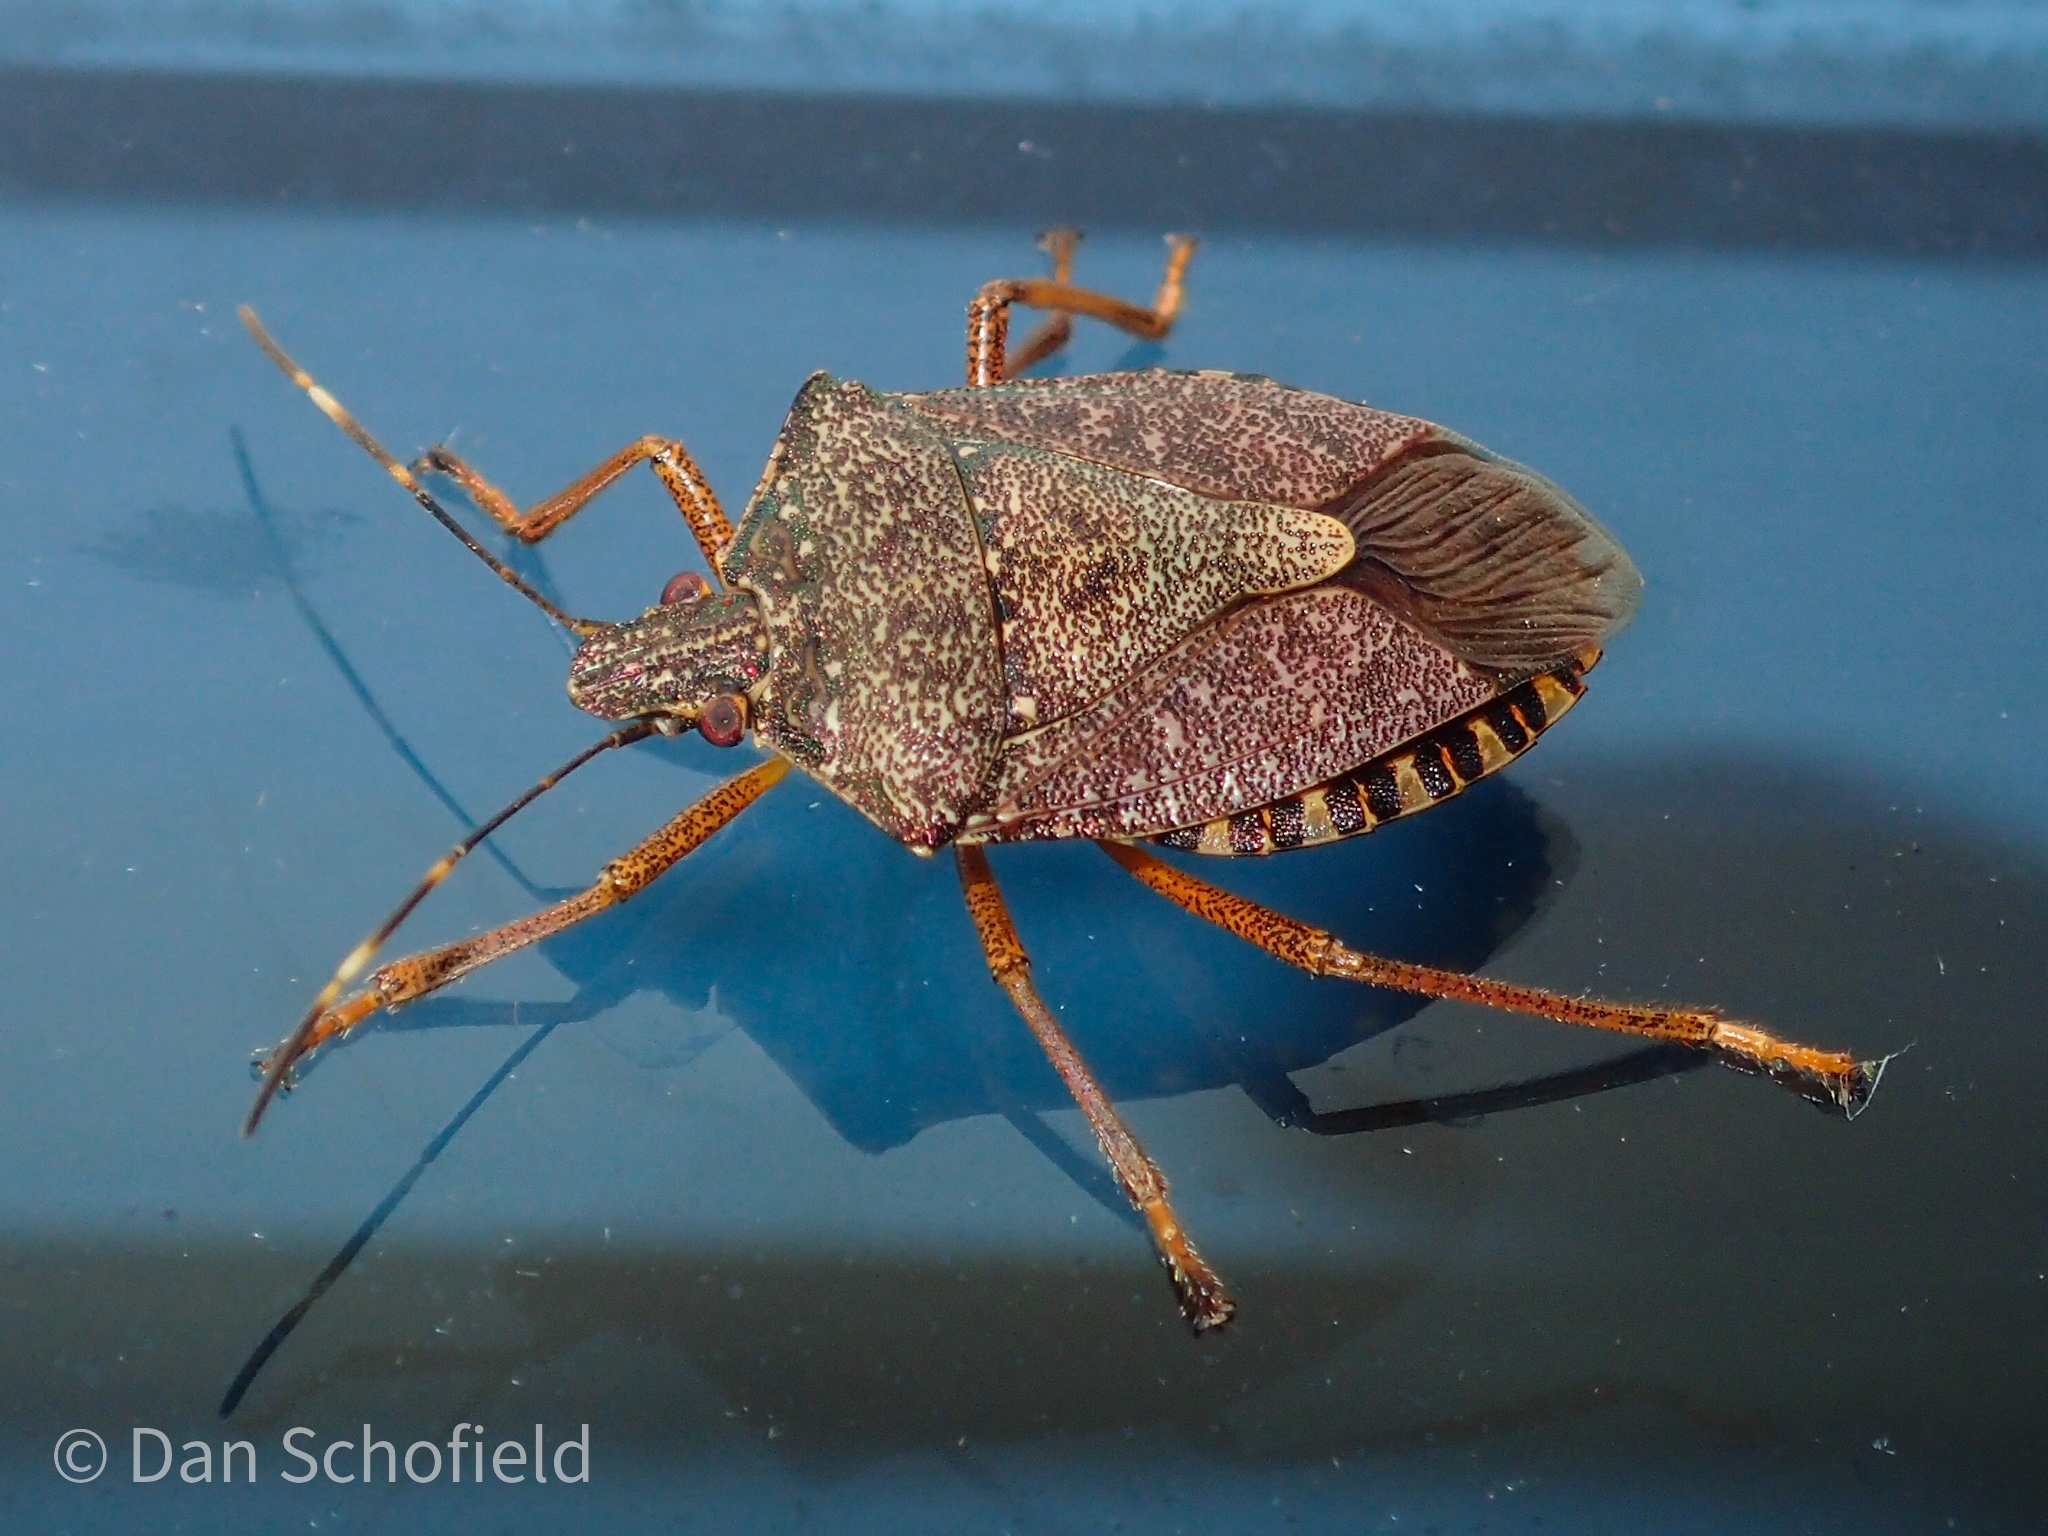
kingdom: Animalia
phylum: Arthropoda
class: Insecta
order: Hemiptera
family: Pentatomidae
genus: Halyomorpha
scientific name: Halyomorpha halys
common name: Brown marmorated stink bug
